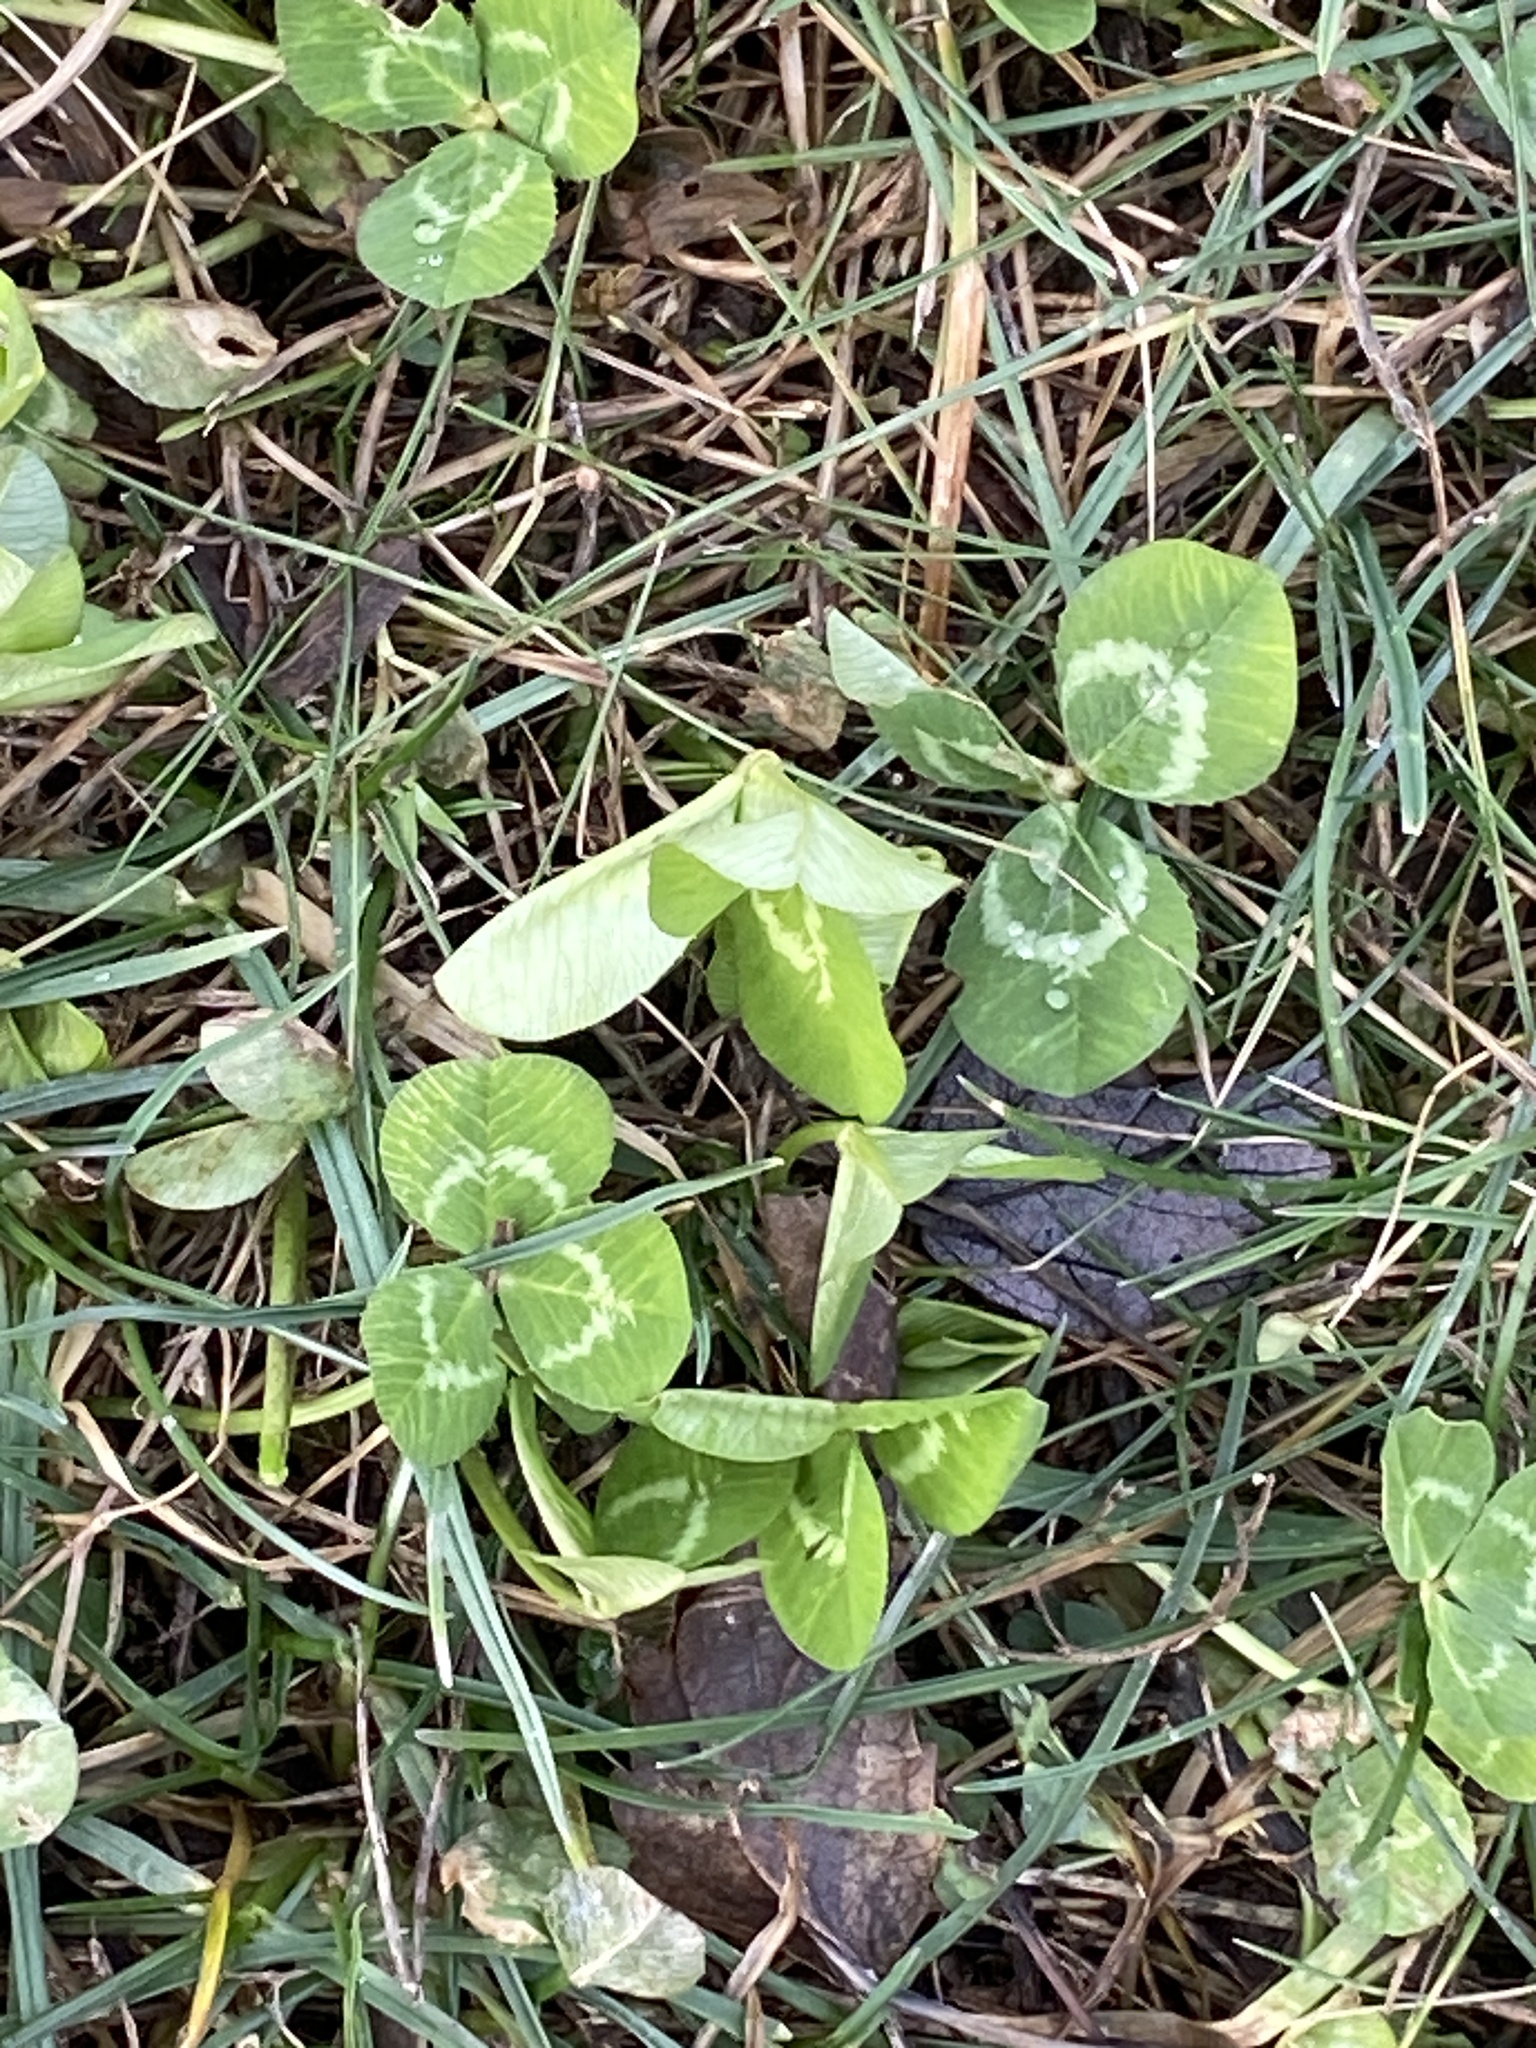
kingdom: Plantae
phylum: Tracheophyta
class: Magnoliopsida
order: Fabales
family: Fabaceae
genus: Trifolium
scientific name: Trifolium repens
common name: White clover
